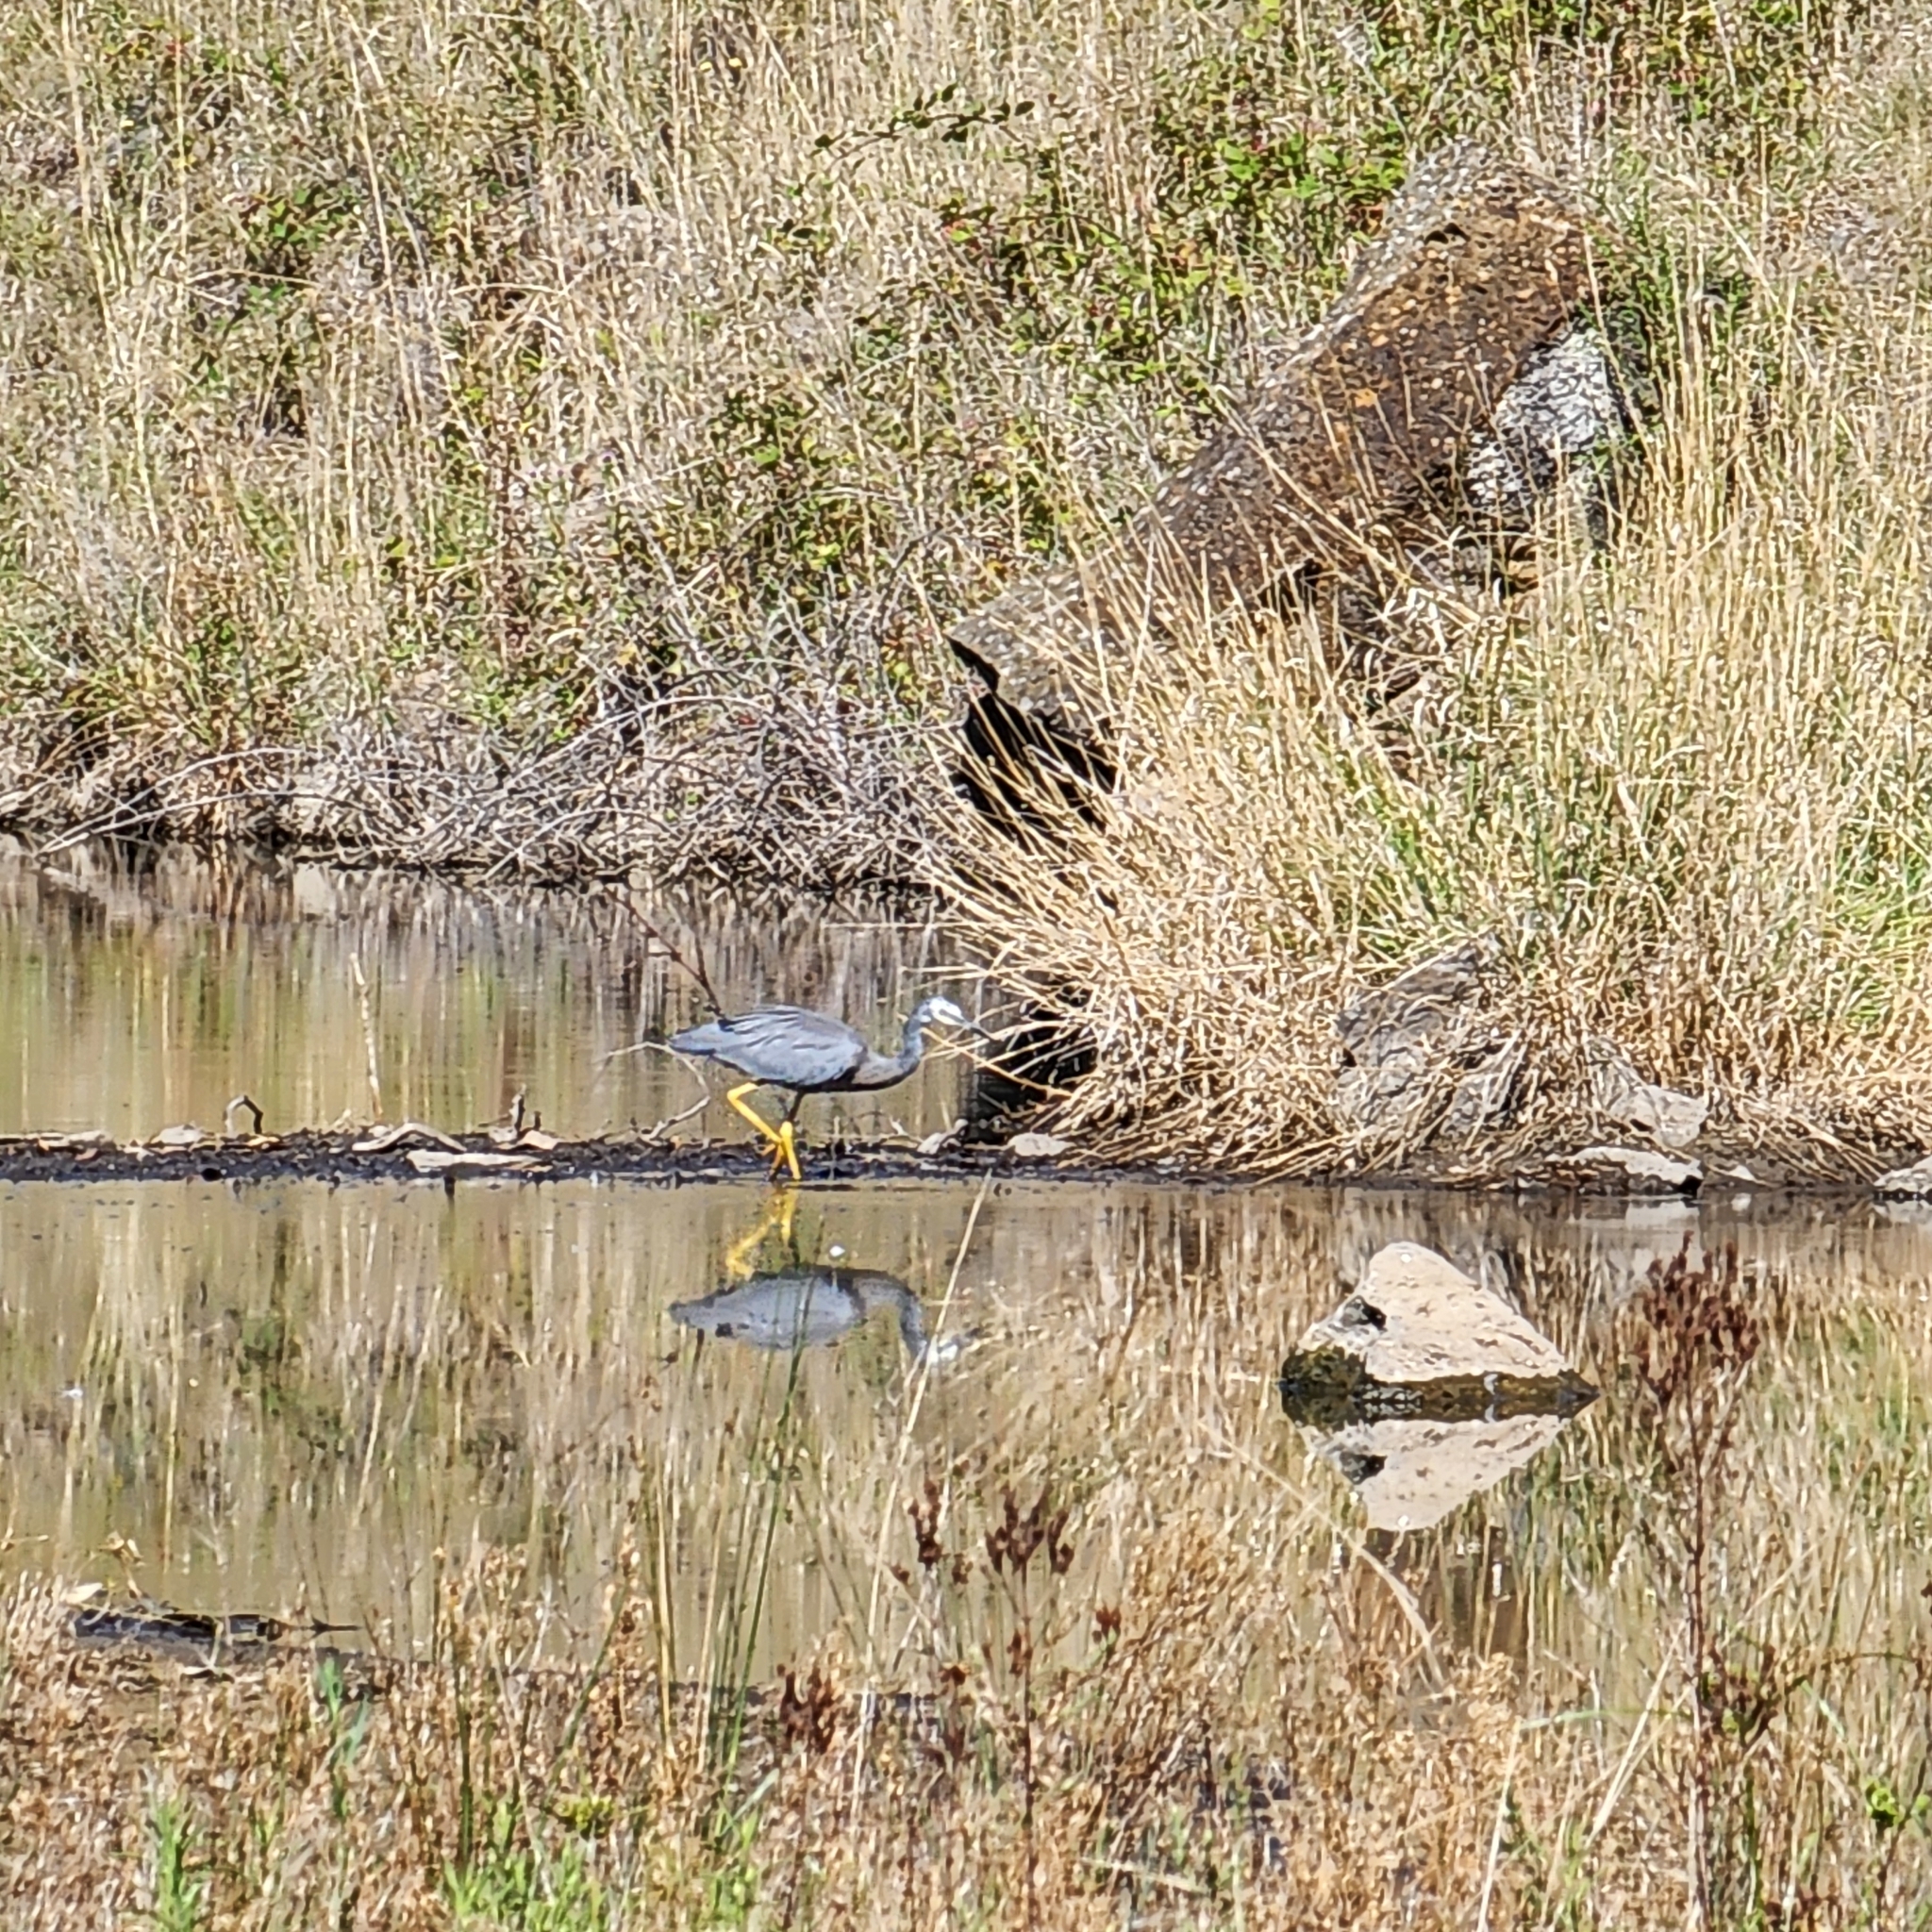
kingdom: Animalia
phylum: Chordata
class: Aves
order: Pelecaniformes
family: Ardeidae
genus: Egretta
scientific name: Egretta novaehollandiae
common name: White-faced heron
